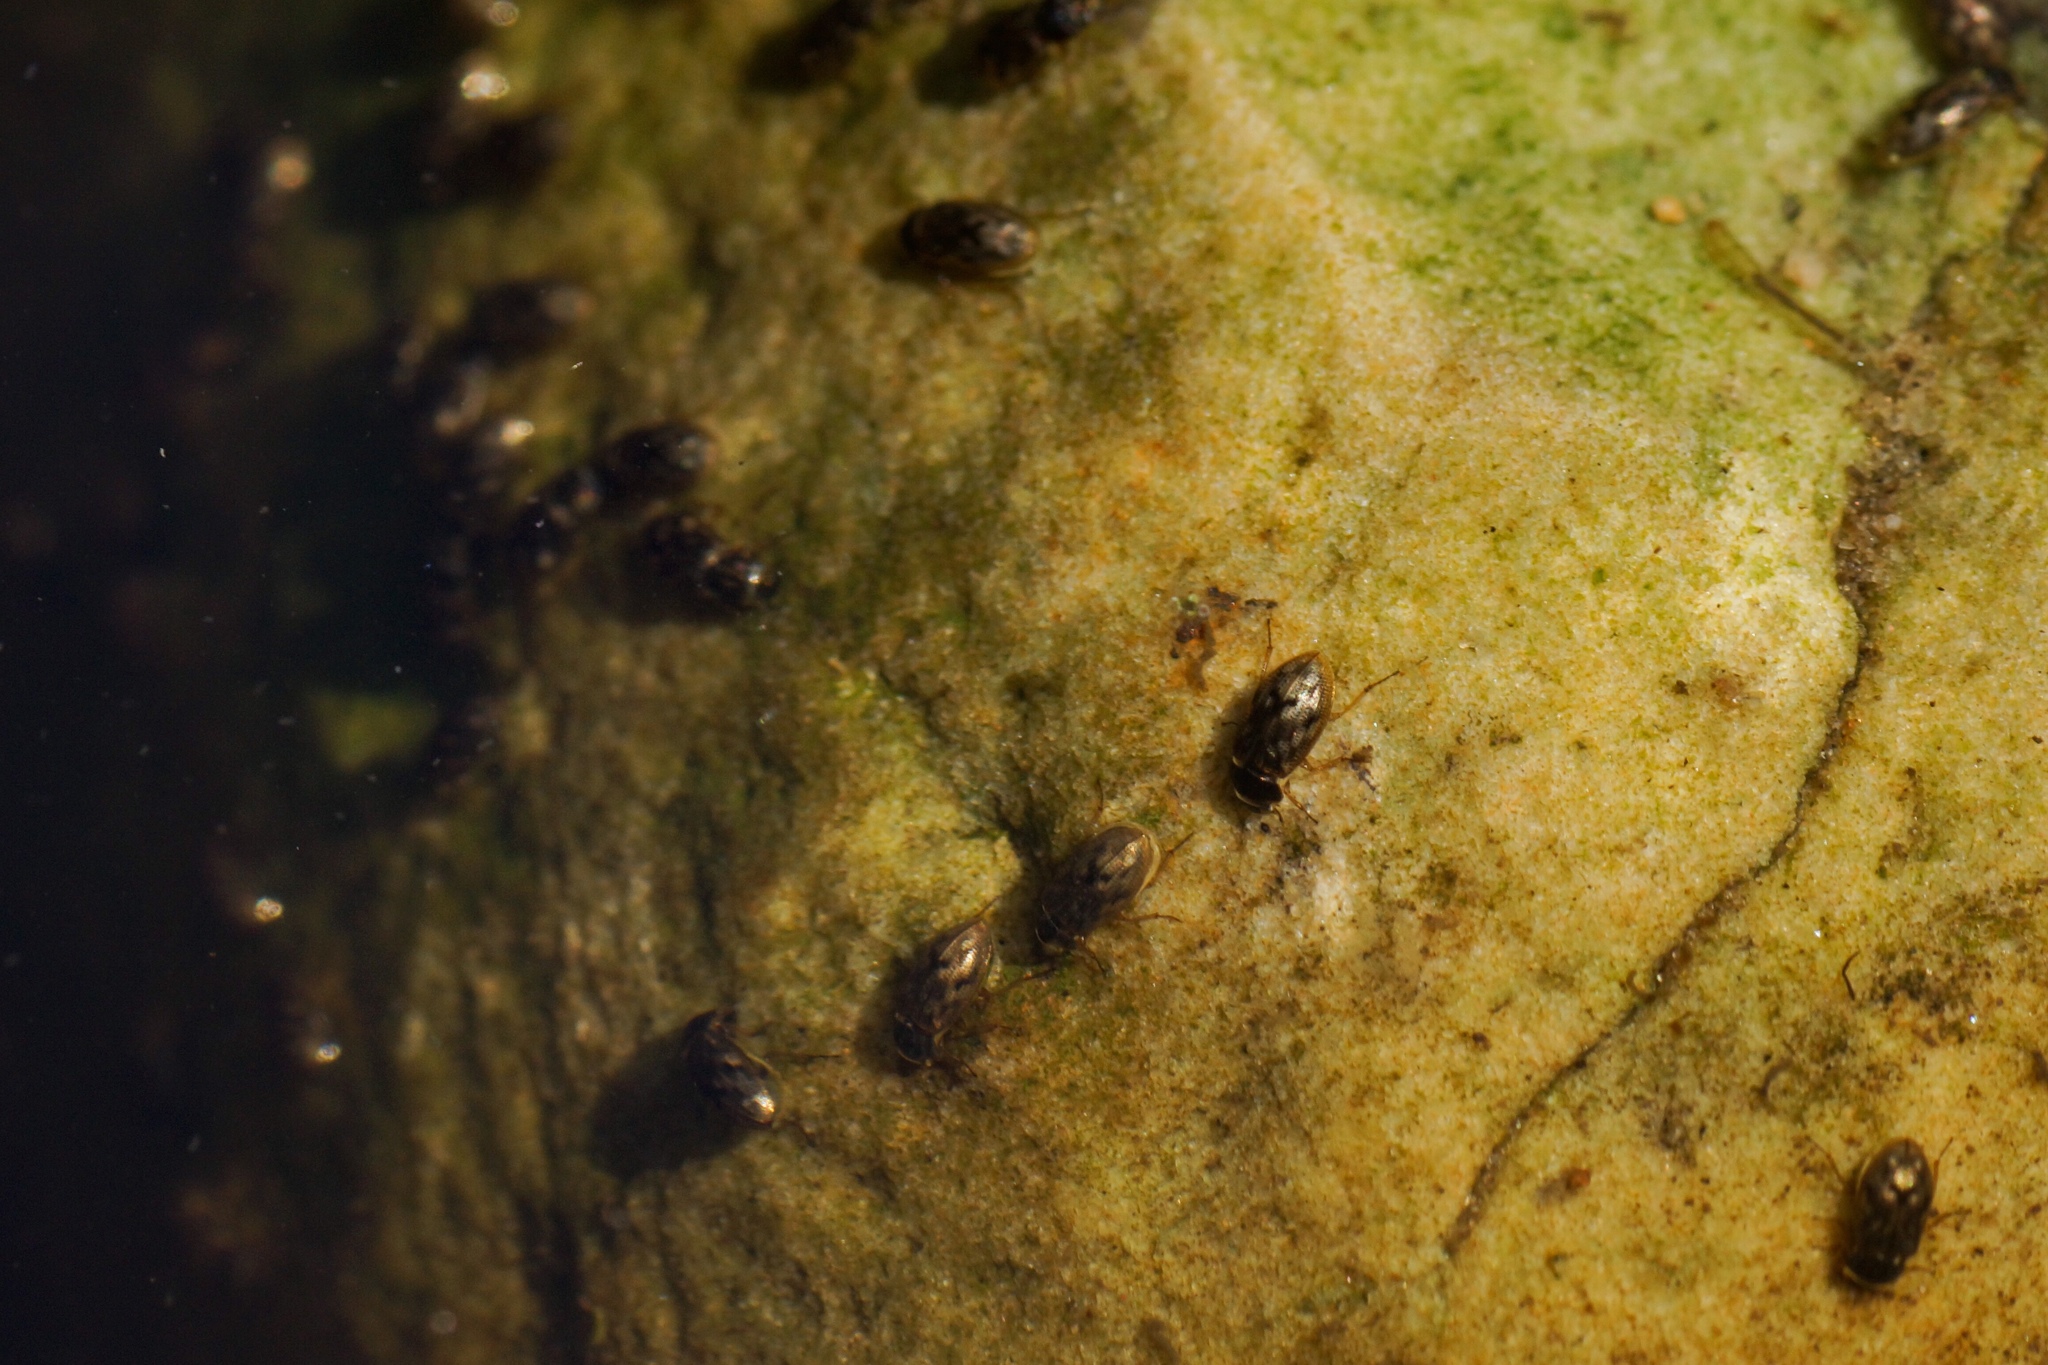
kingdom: Animalia
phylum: Arthropoda
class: Insecta
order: Coleoptera
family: Helophoridae
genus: Helophorus
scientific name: Helophorus
